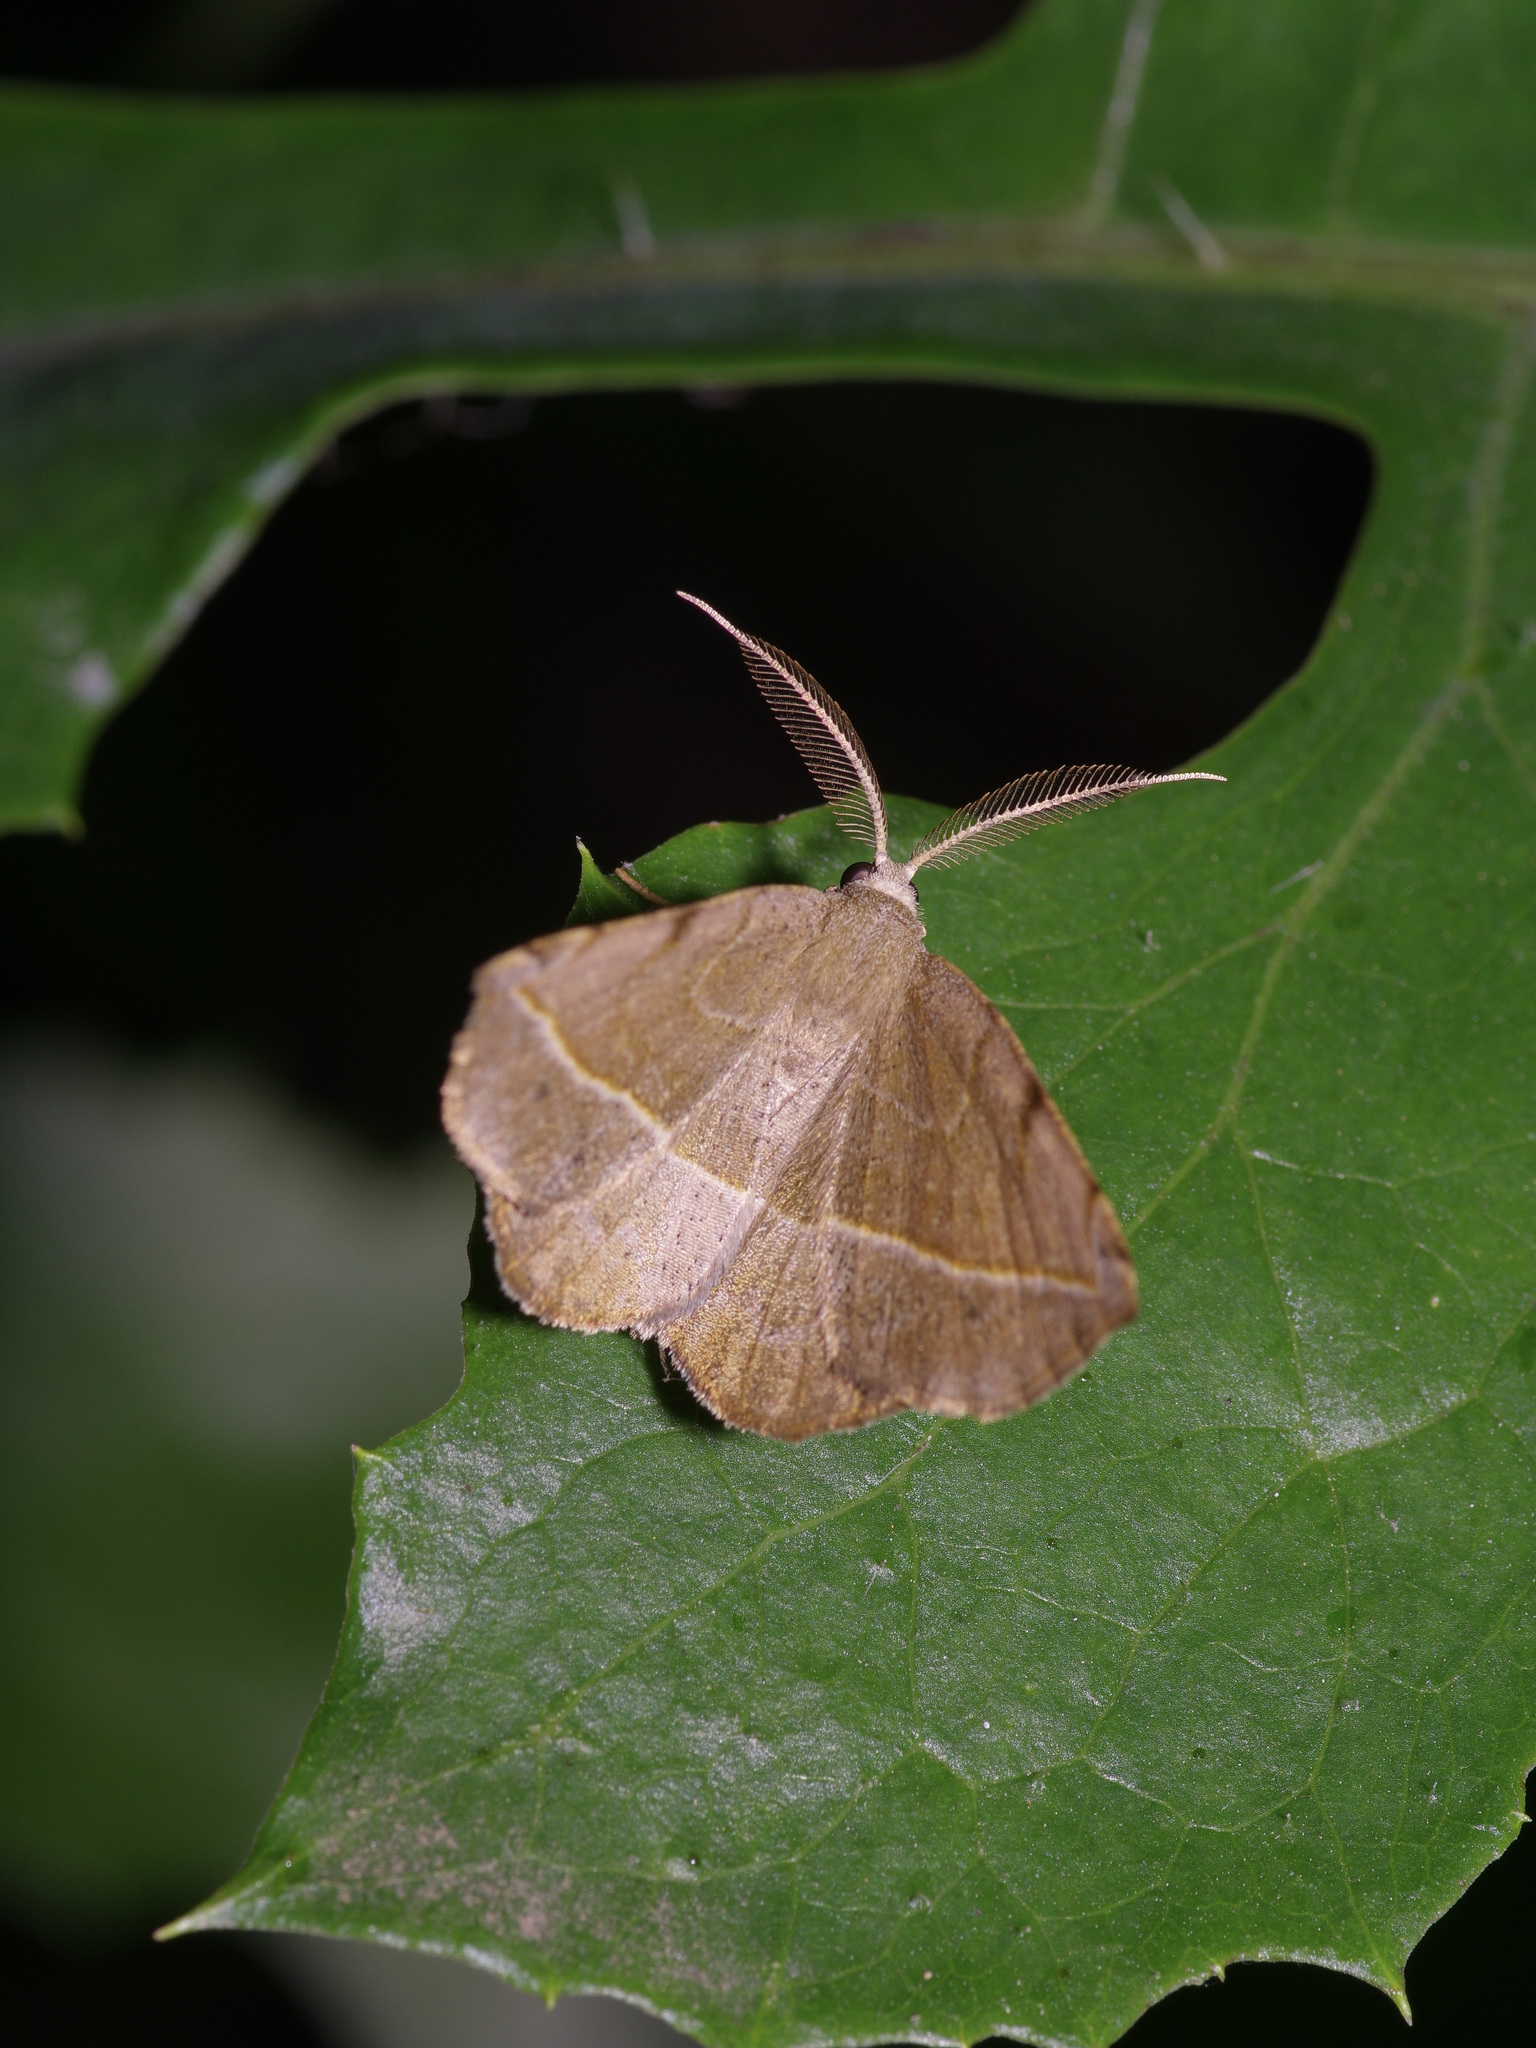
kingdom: Animalia
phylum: Arthropoda
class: Insecta
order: Lepidoptera
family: Geometridae
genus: Eusarca
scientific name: Eusarca packardaria
